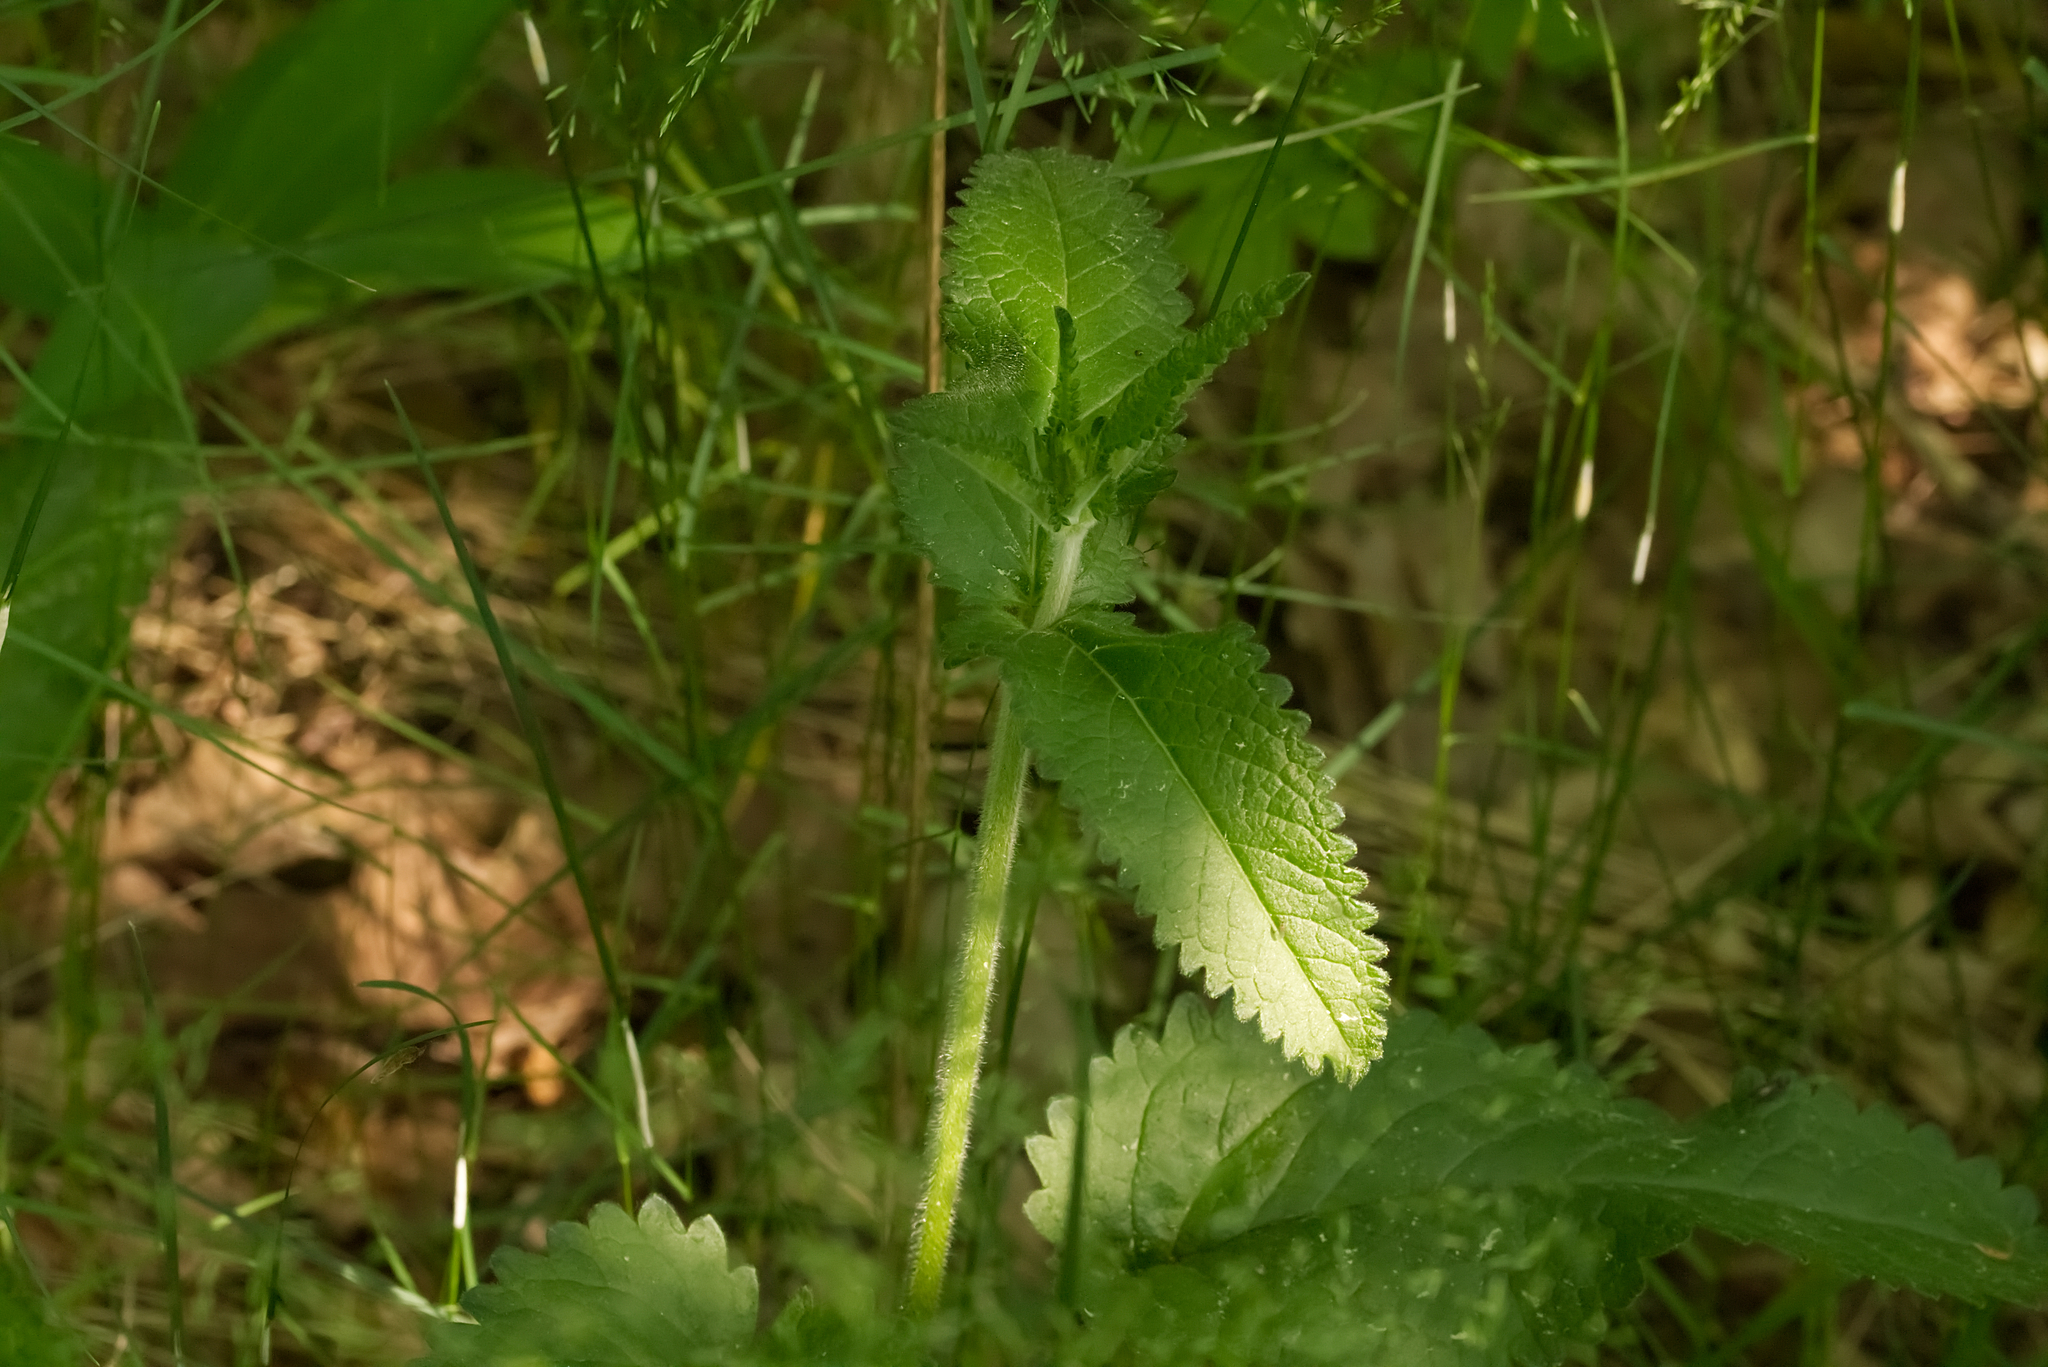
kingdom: Plantae
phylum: Tracheophyta
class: Magnoliopsida
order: Lamiales
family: Lamiaceae
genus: Betonica
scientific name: Betonica officinalis
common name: Bishop's-wort
